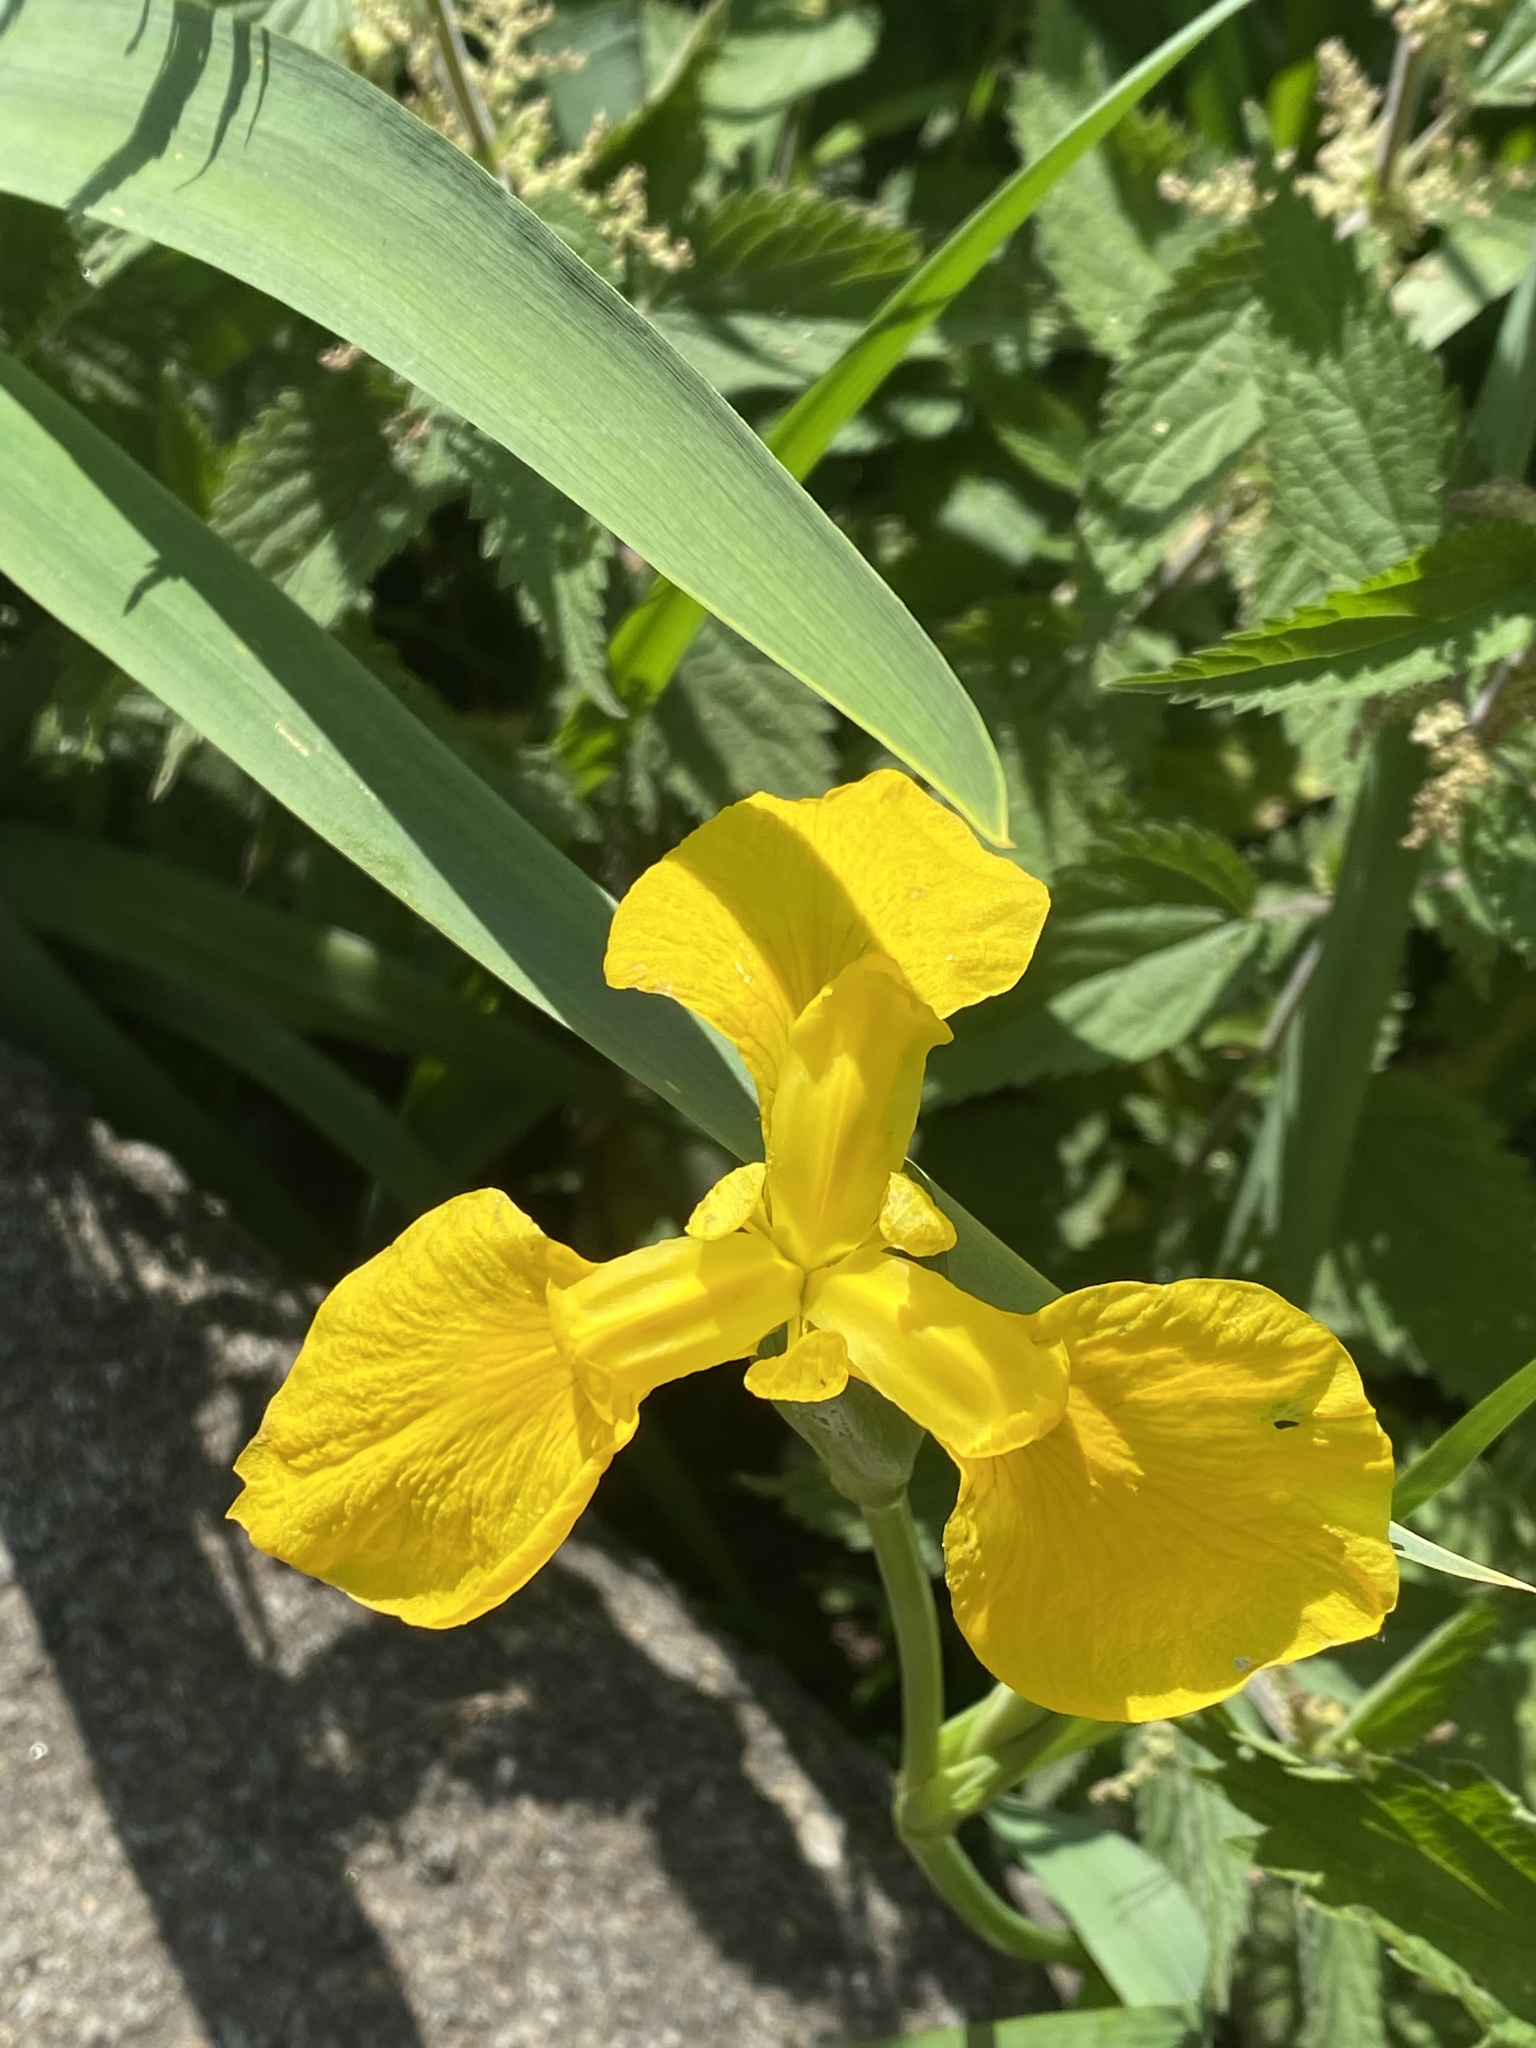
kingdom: Plantae
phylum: Tracheophyta
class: Liliopsida
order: Asparagales
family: Iridaceae
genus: Iris
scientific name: Iris pseudacorus
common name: Yellow flag
